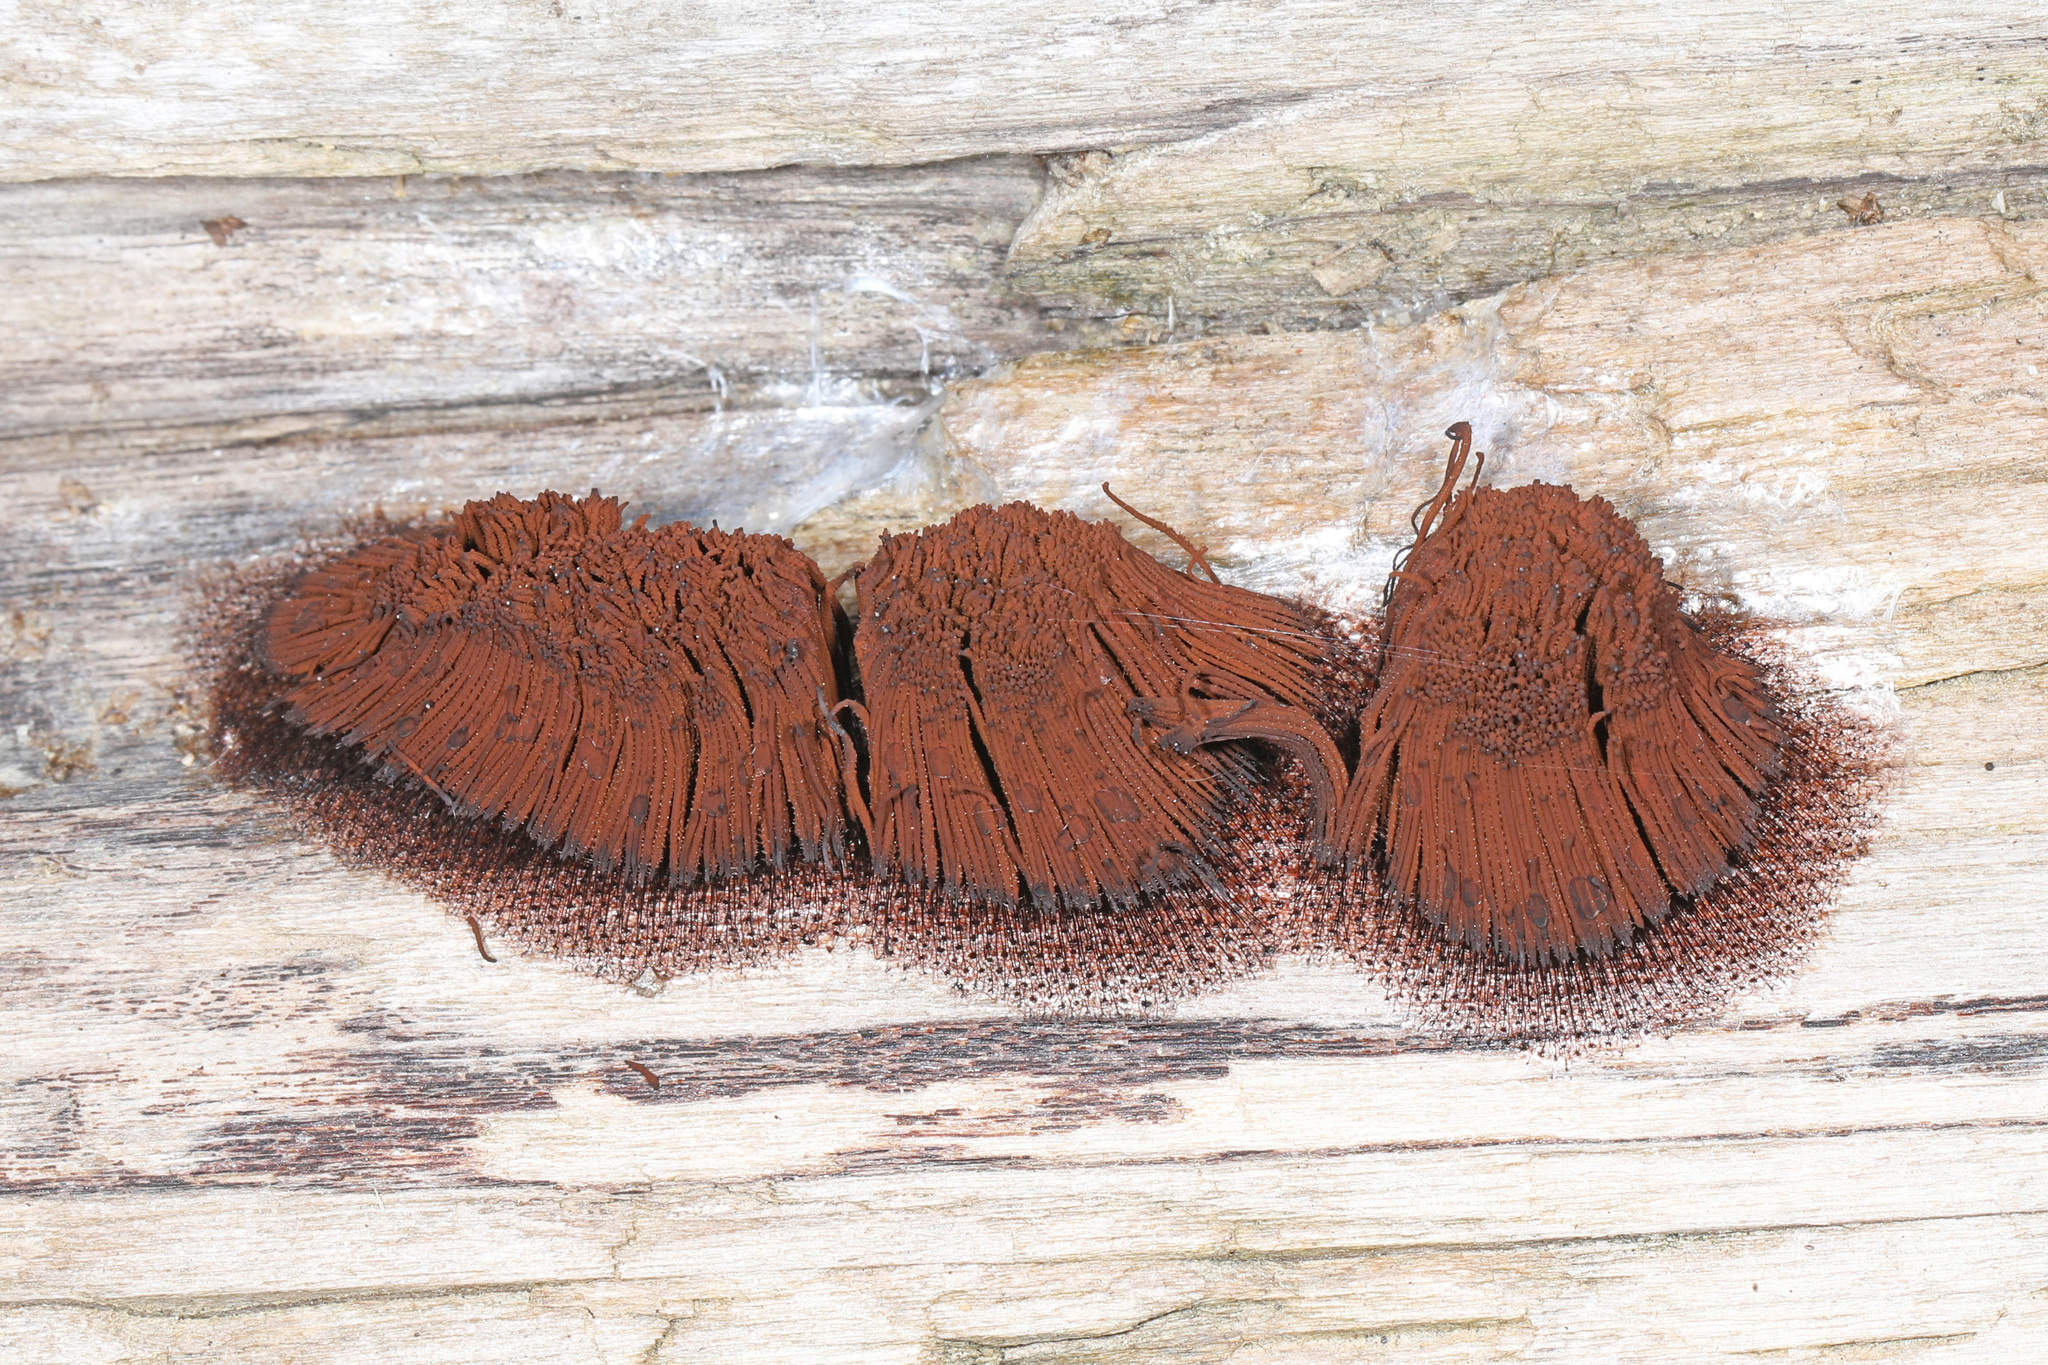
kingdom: Protozoa
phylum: Mycetozoa
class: Myxomycetes
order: Stemonitidales
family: Stemonitidaceae
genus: Stemonitis
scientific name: Stemonitis splendens
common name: Chocolate tube slime
